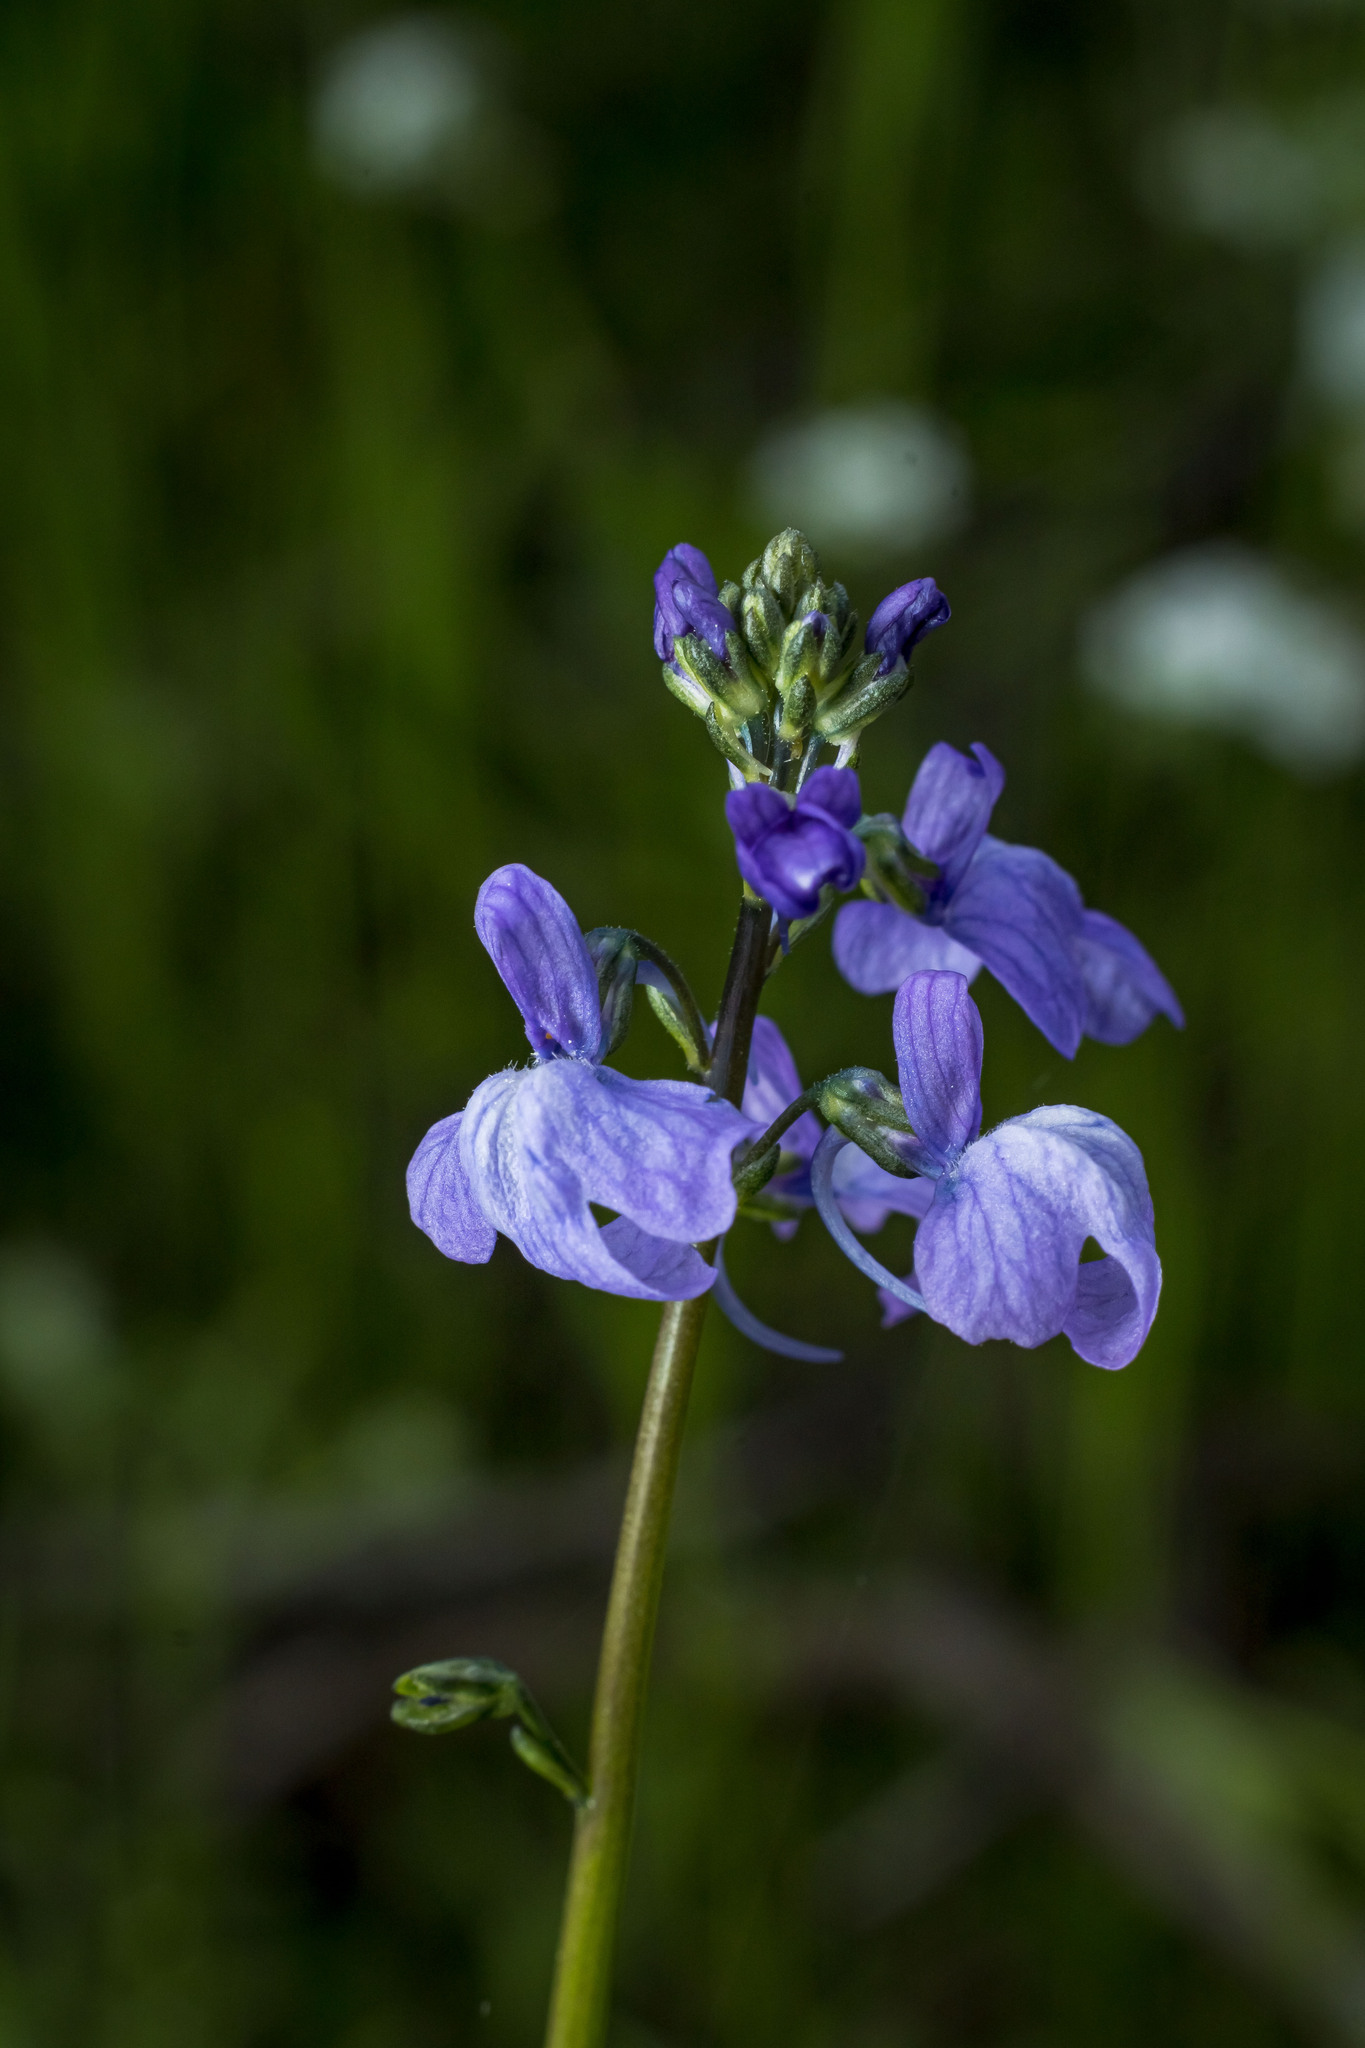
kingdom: Plantae
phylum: Tracheophyta
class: Magnoliopsida
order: Lamiales
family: Plantaginaceae
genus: Nuttallanthus
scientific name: Nuttallanthus texanus
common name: Texas toadflax
